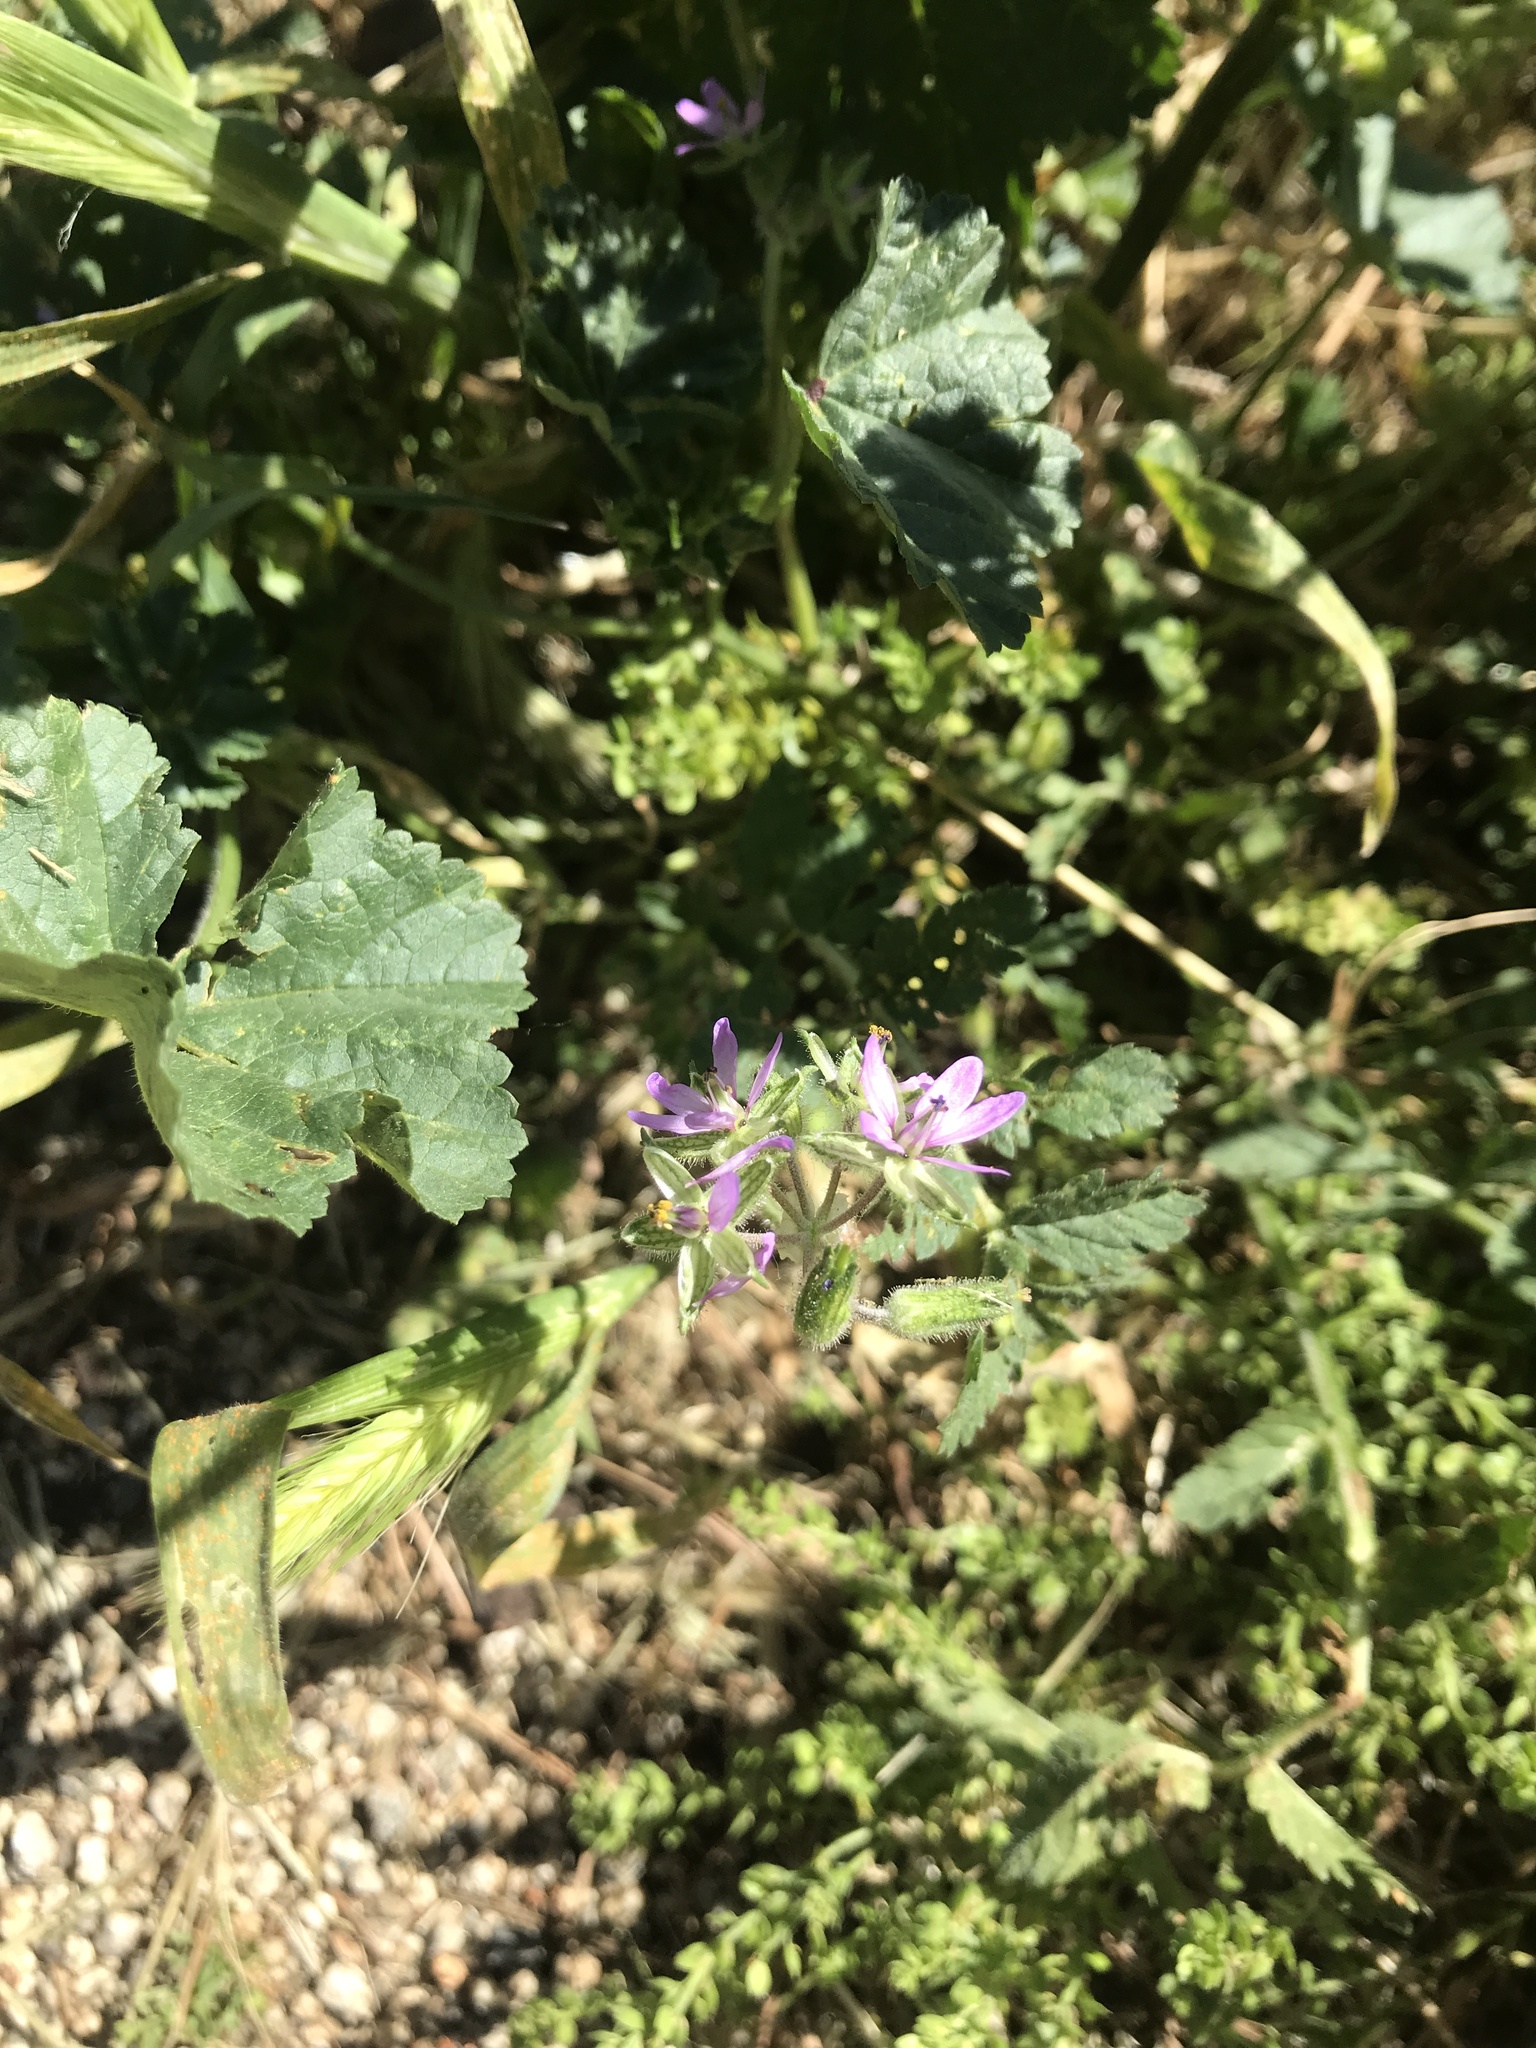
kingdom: Plantae
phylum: Tracheophyta
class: Magnoliopsida
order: Geraniales
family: Geraniaceae
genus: Erodium
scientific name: Erodium moschatum
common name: Musk stork's-bill
